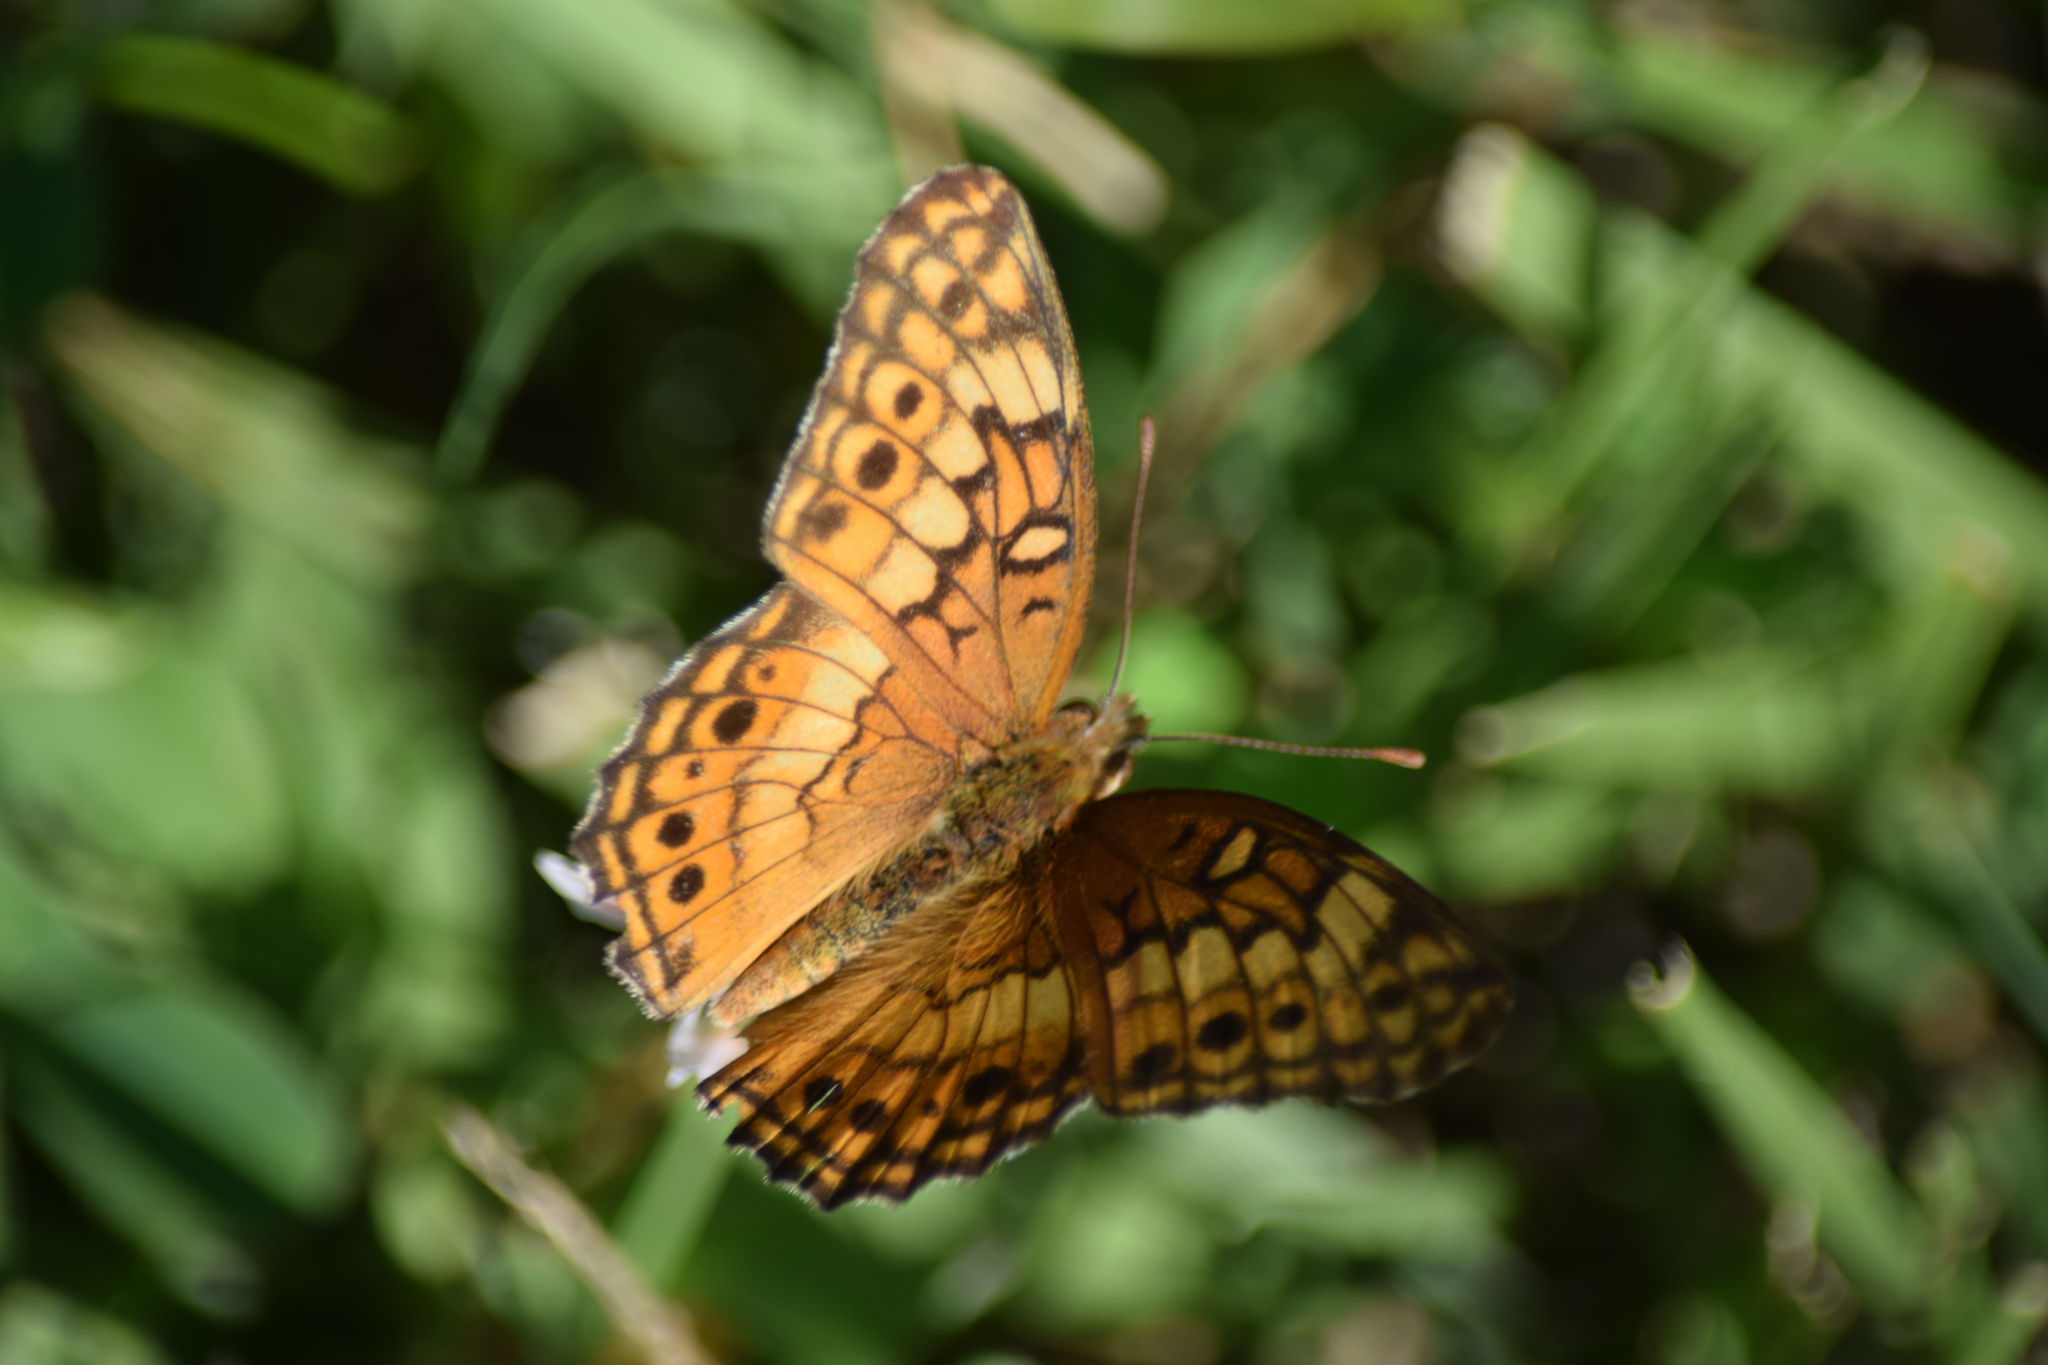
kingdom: Animalia
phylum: Arthropoda
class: Insecta
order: Lepidoptera
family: Nymphalidae
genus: Euptoieta
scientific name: Euptoieta claudia
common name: Variegated fritillary
